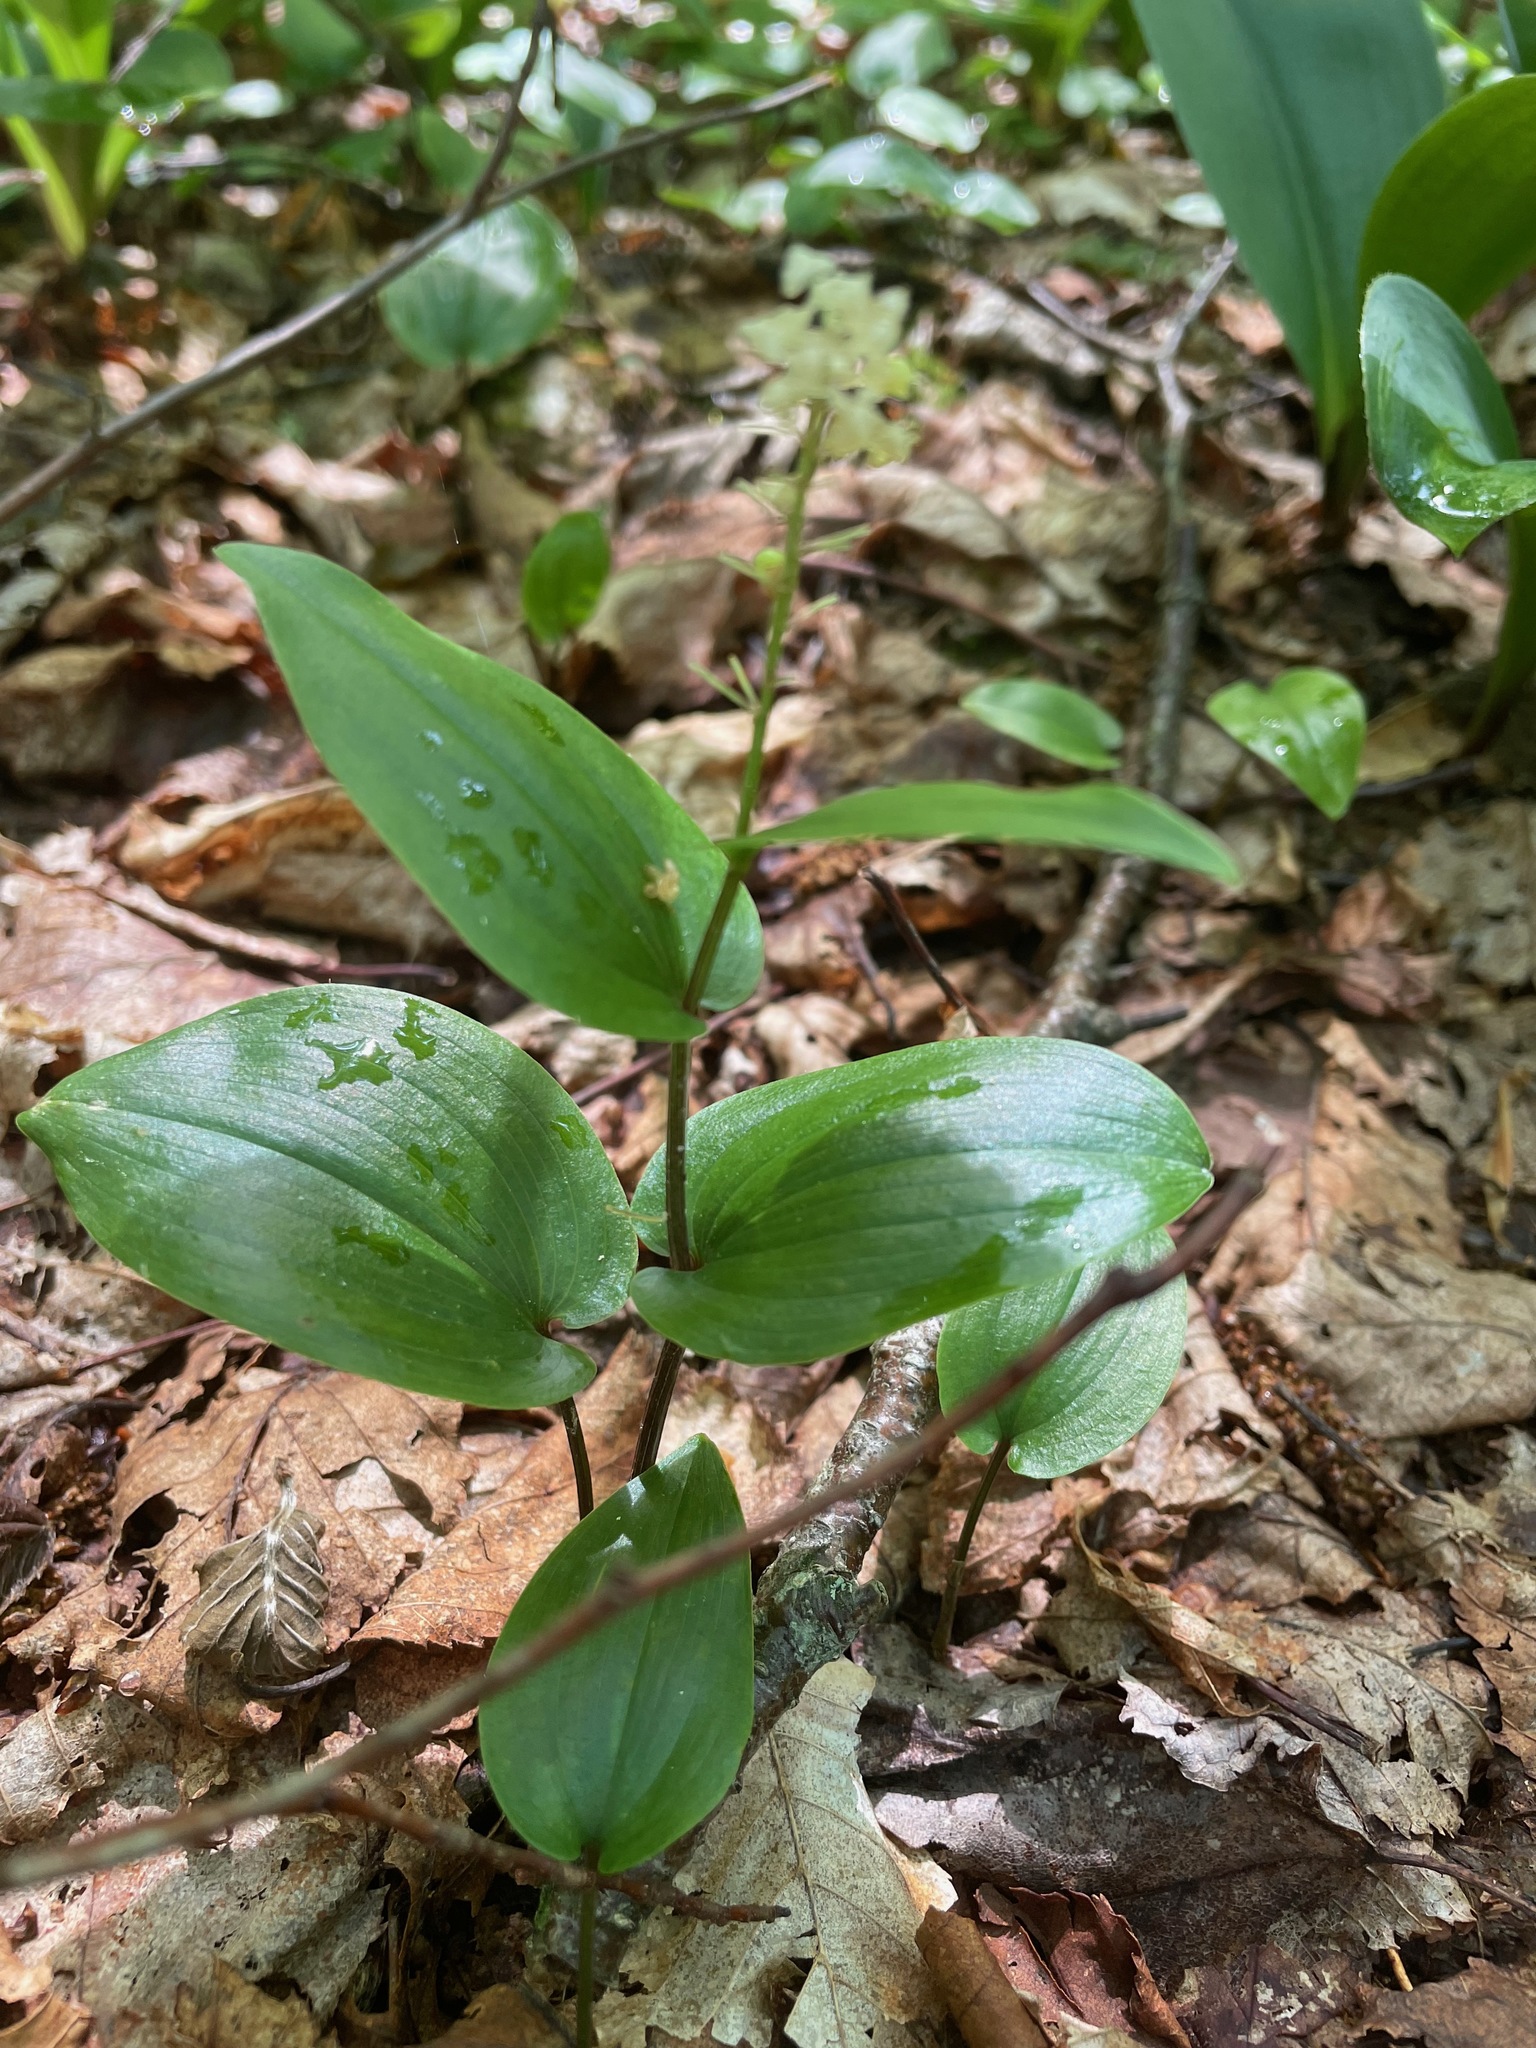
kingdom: Plantae
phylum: Tracheophyta
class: Liliopsida
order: Asparagales
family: Asparagaceae
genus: Maianthemum
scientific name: Maianthemum canadense
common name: False lily-of-the-valley
